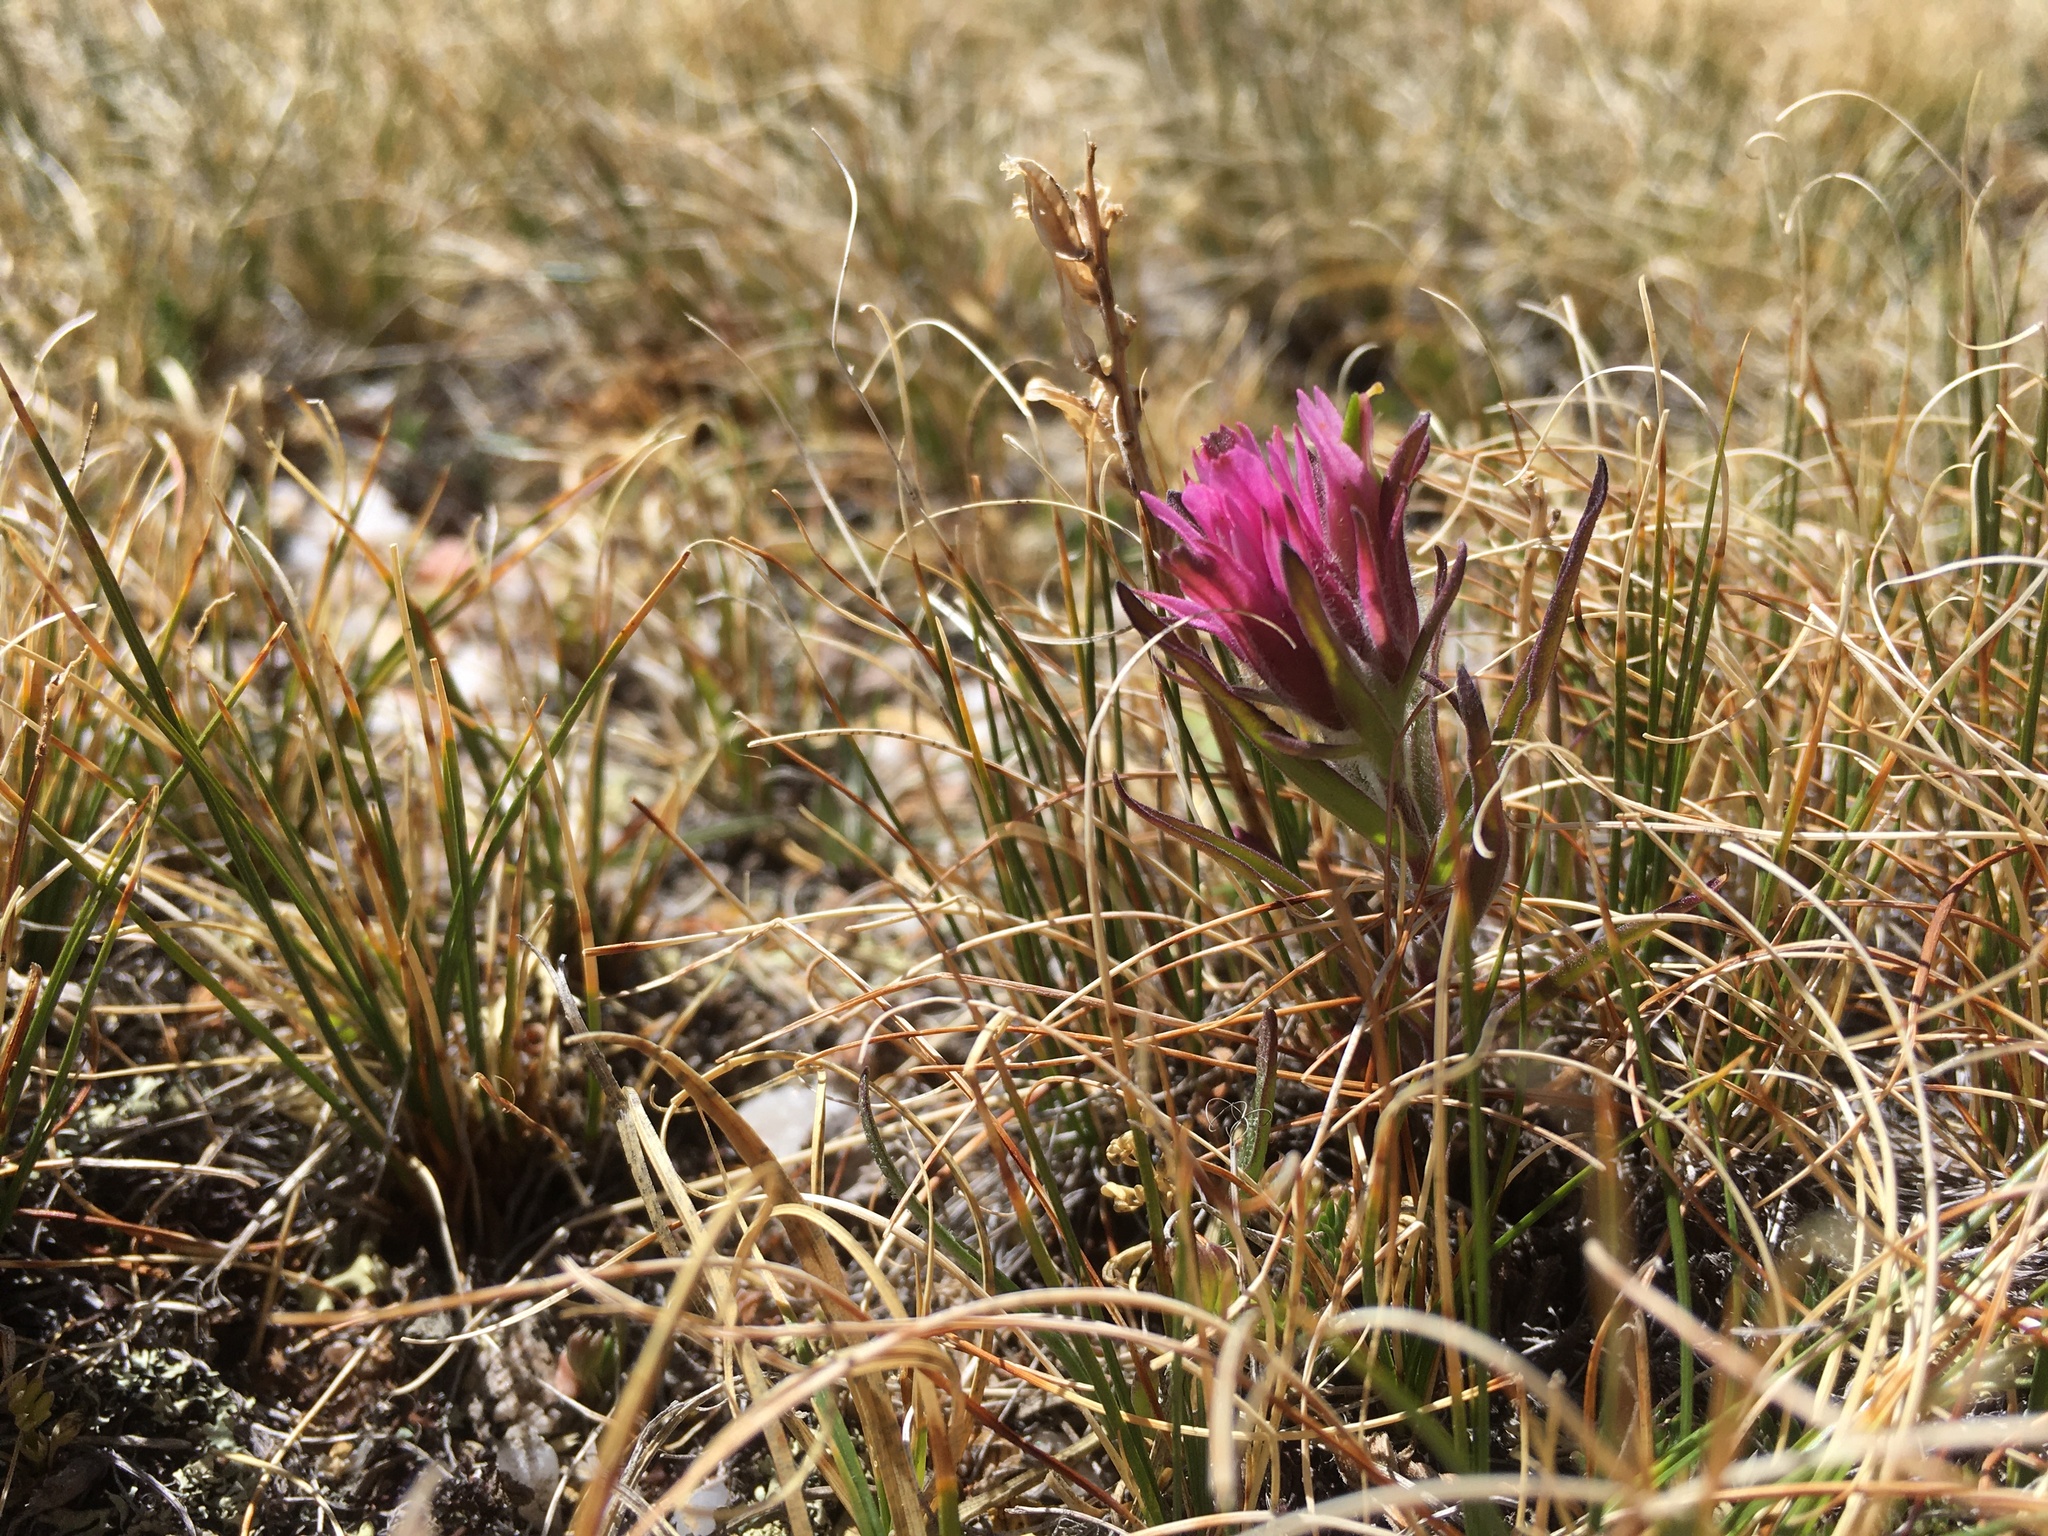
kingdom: Plantae
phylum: Tracheophyta
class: Magnoliopsida
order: Lamiales
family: Orobanchaceae
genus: Castilleja
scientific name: Castilleja haydenii
